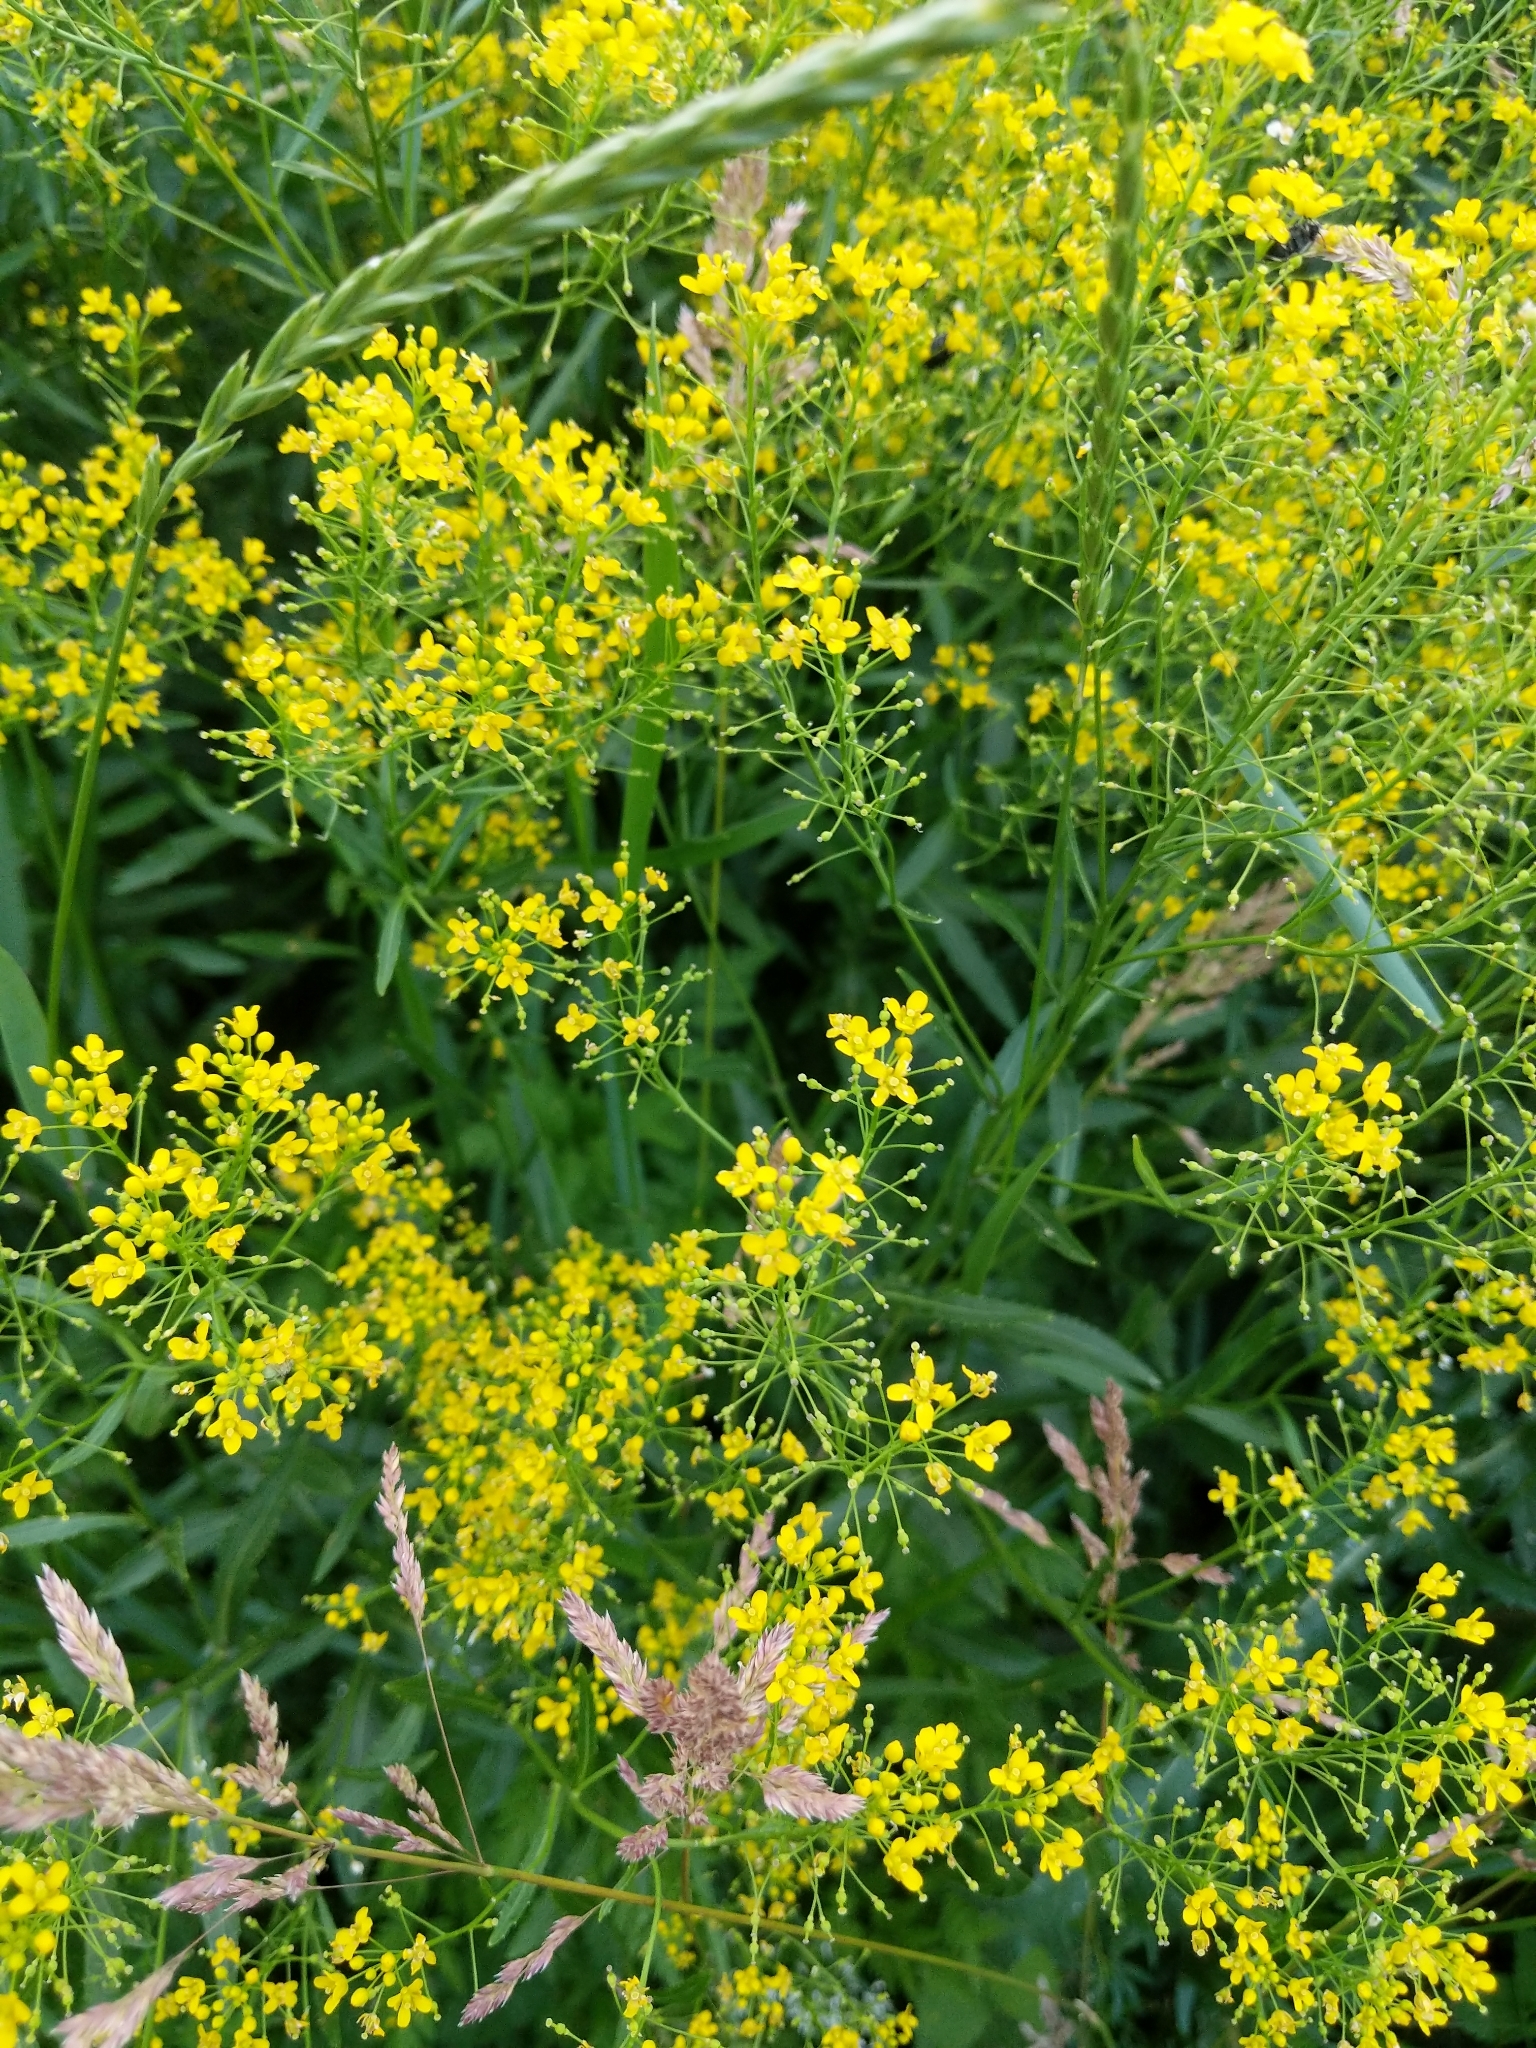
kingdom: Plantae
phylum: Tracheophyta
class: Magnoliopsida
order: Brassicales
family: Brassicaceae
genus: Rorippa
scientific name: Rorippa austriaca
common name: Austrian yellow-cress
